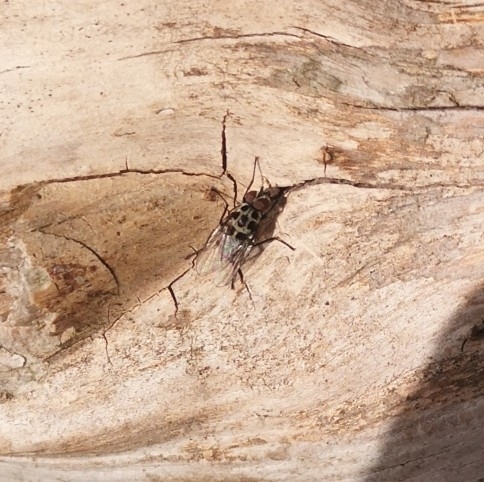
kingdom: Animalia
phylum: Arthropoda
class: Insecta
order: Diptera
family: Anthomyiidae
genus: Anthomyia
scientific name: Anthomyia pluvialis
